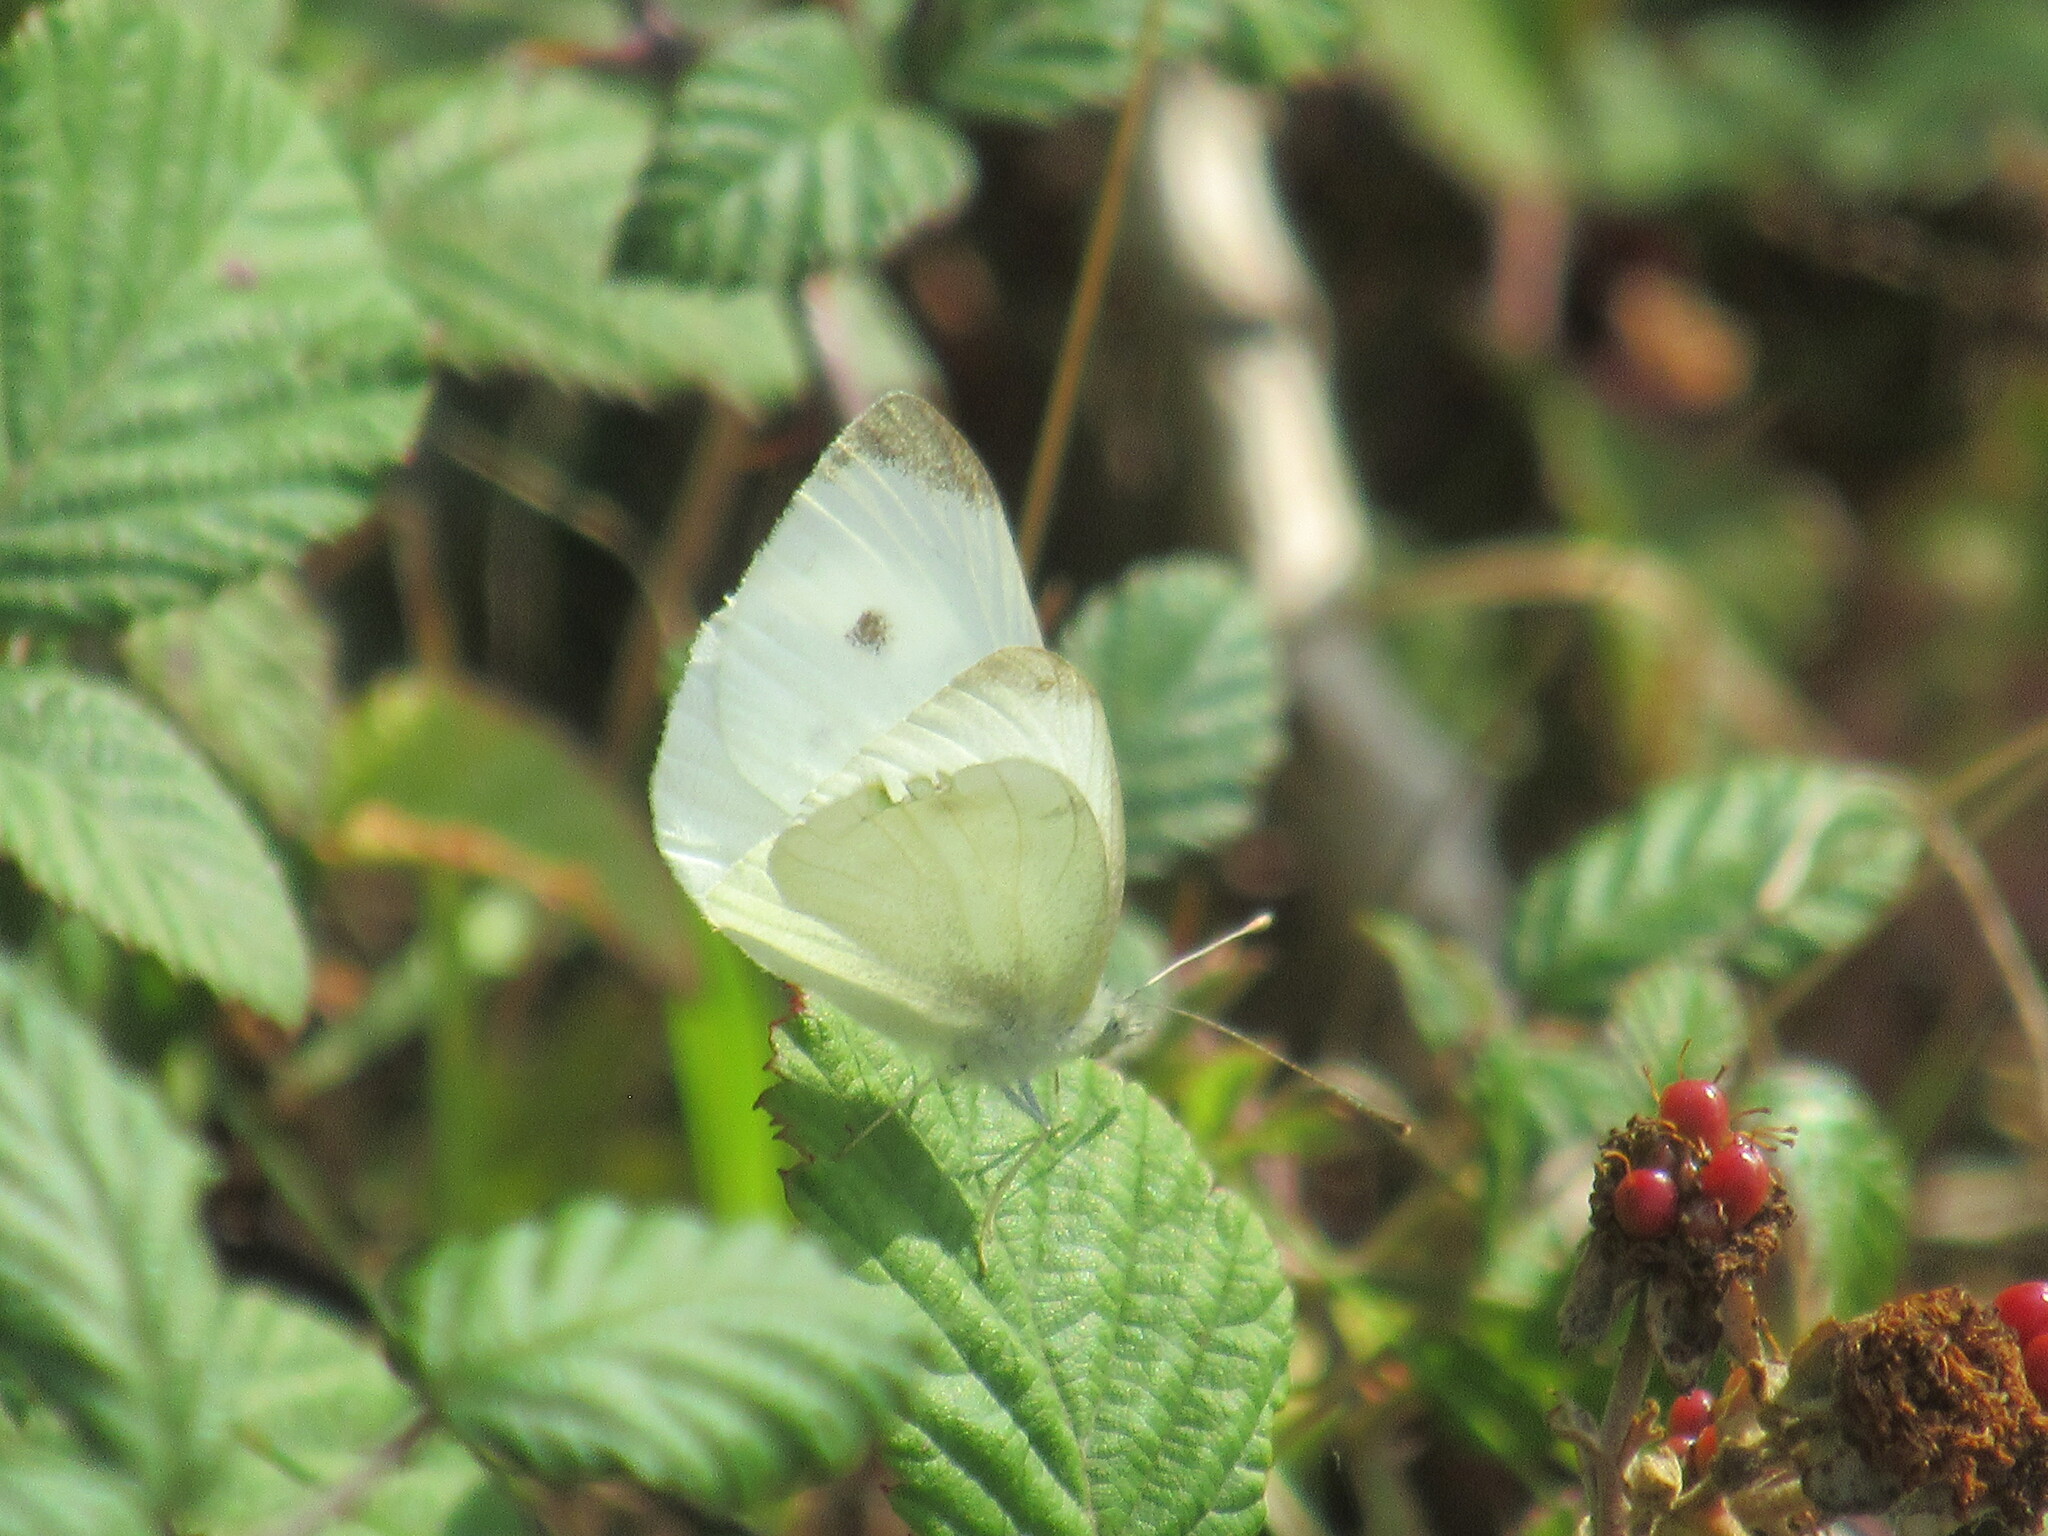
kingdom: Animalia
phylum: Arthropoda
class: Insecta
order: Lepidoptera
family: Pieridae
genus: Pieris
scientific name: Pieris rapae
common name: Small white
